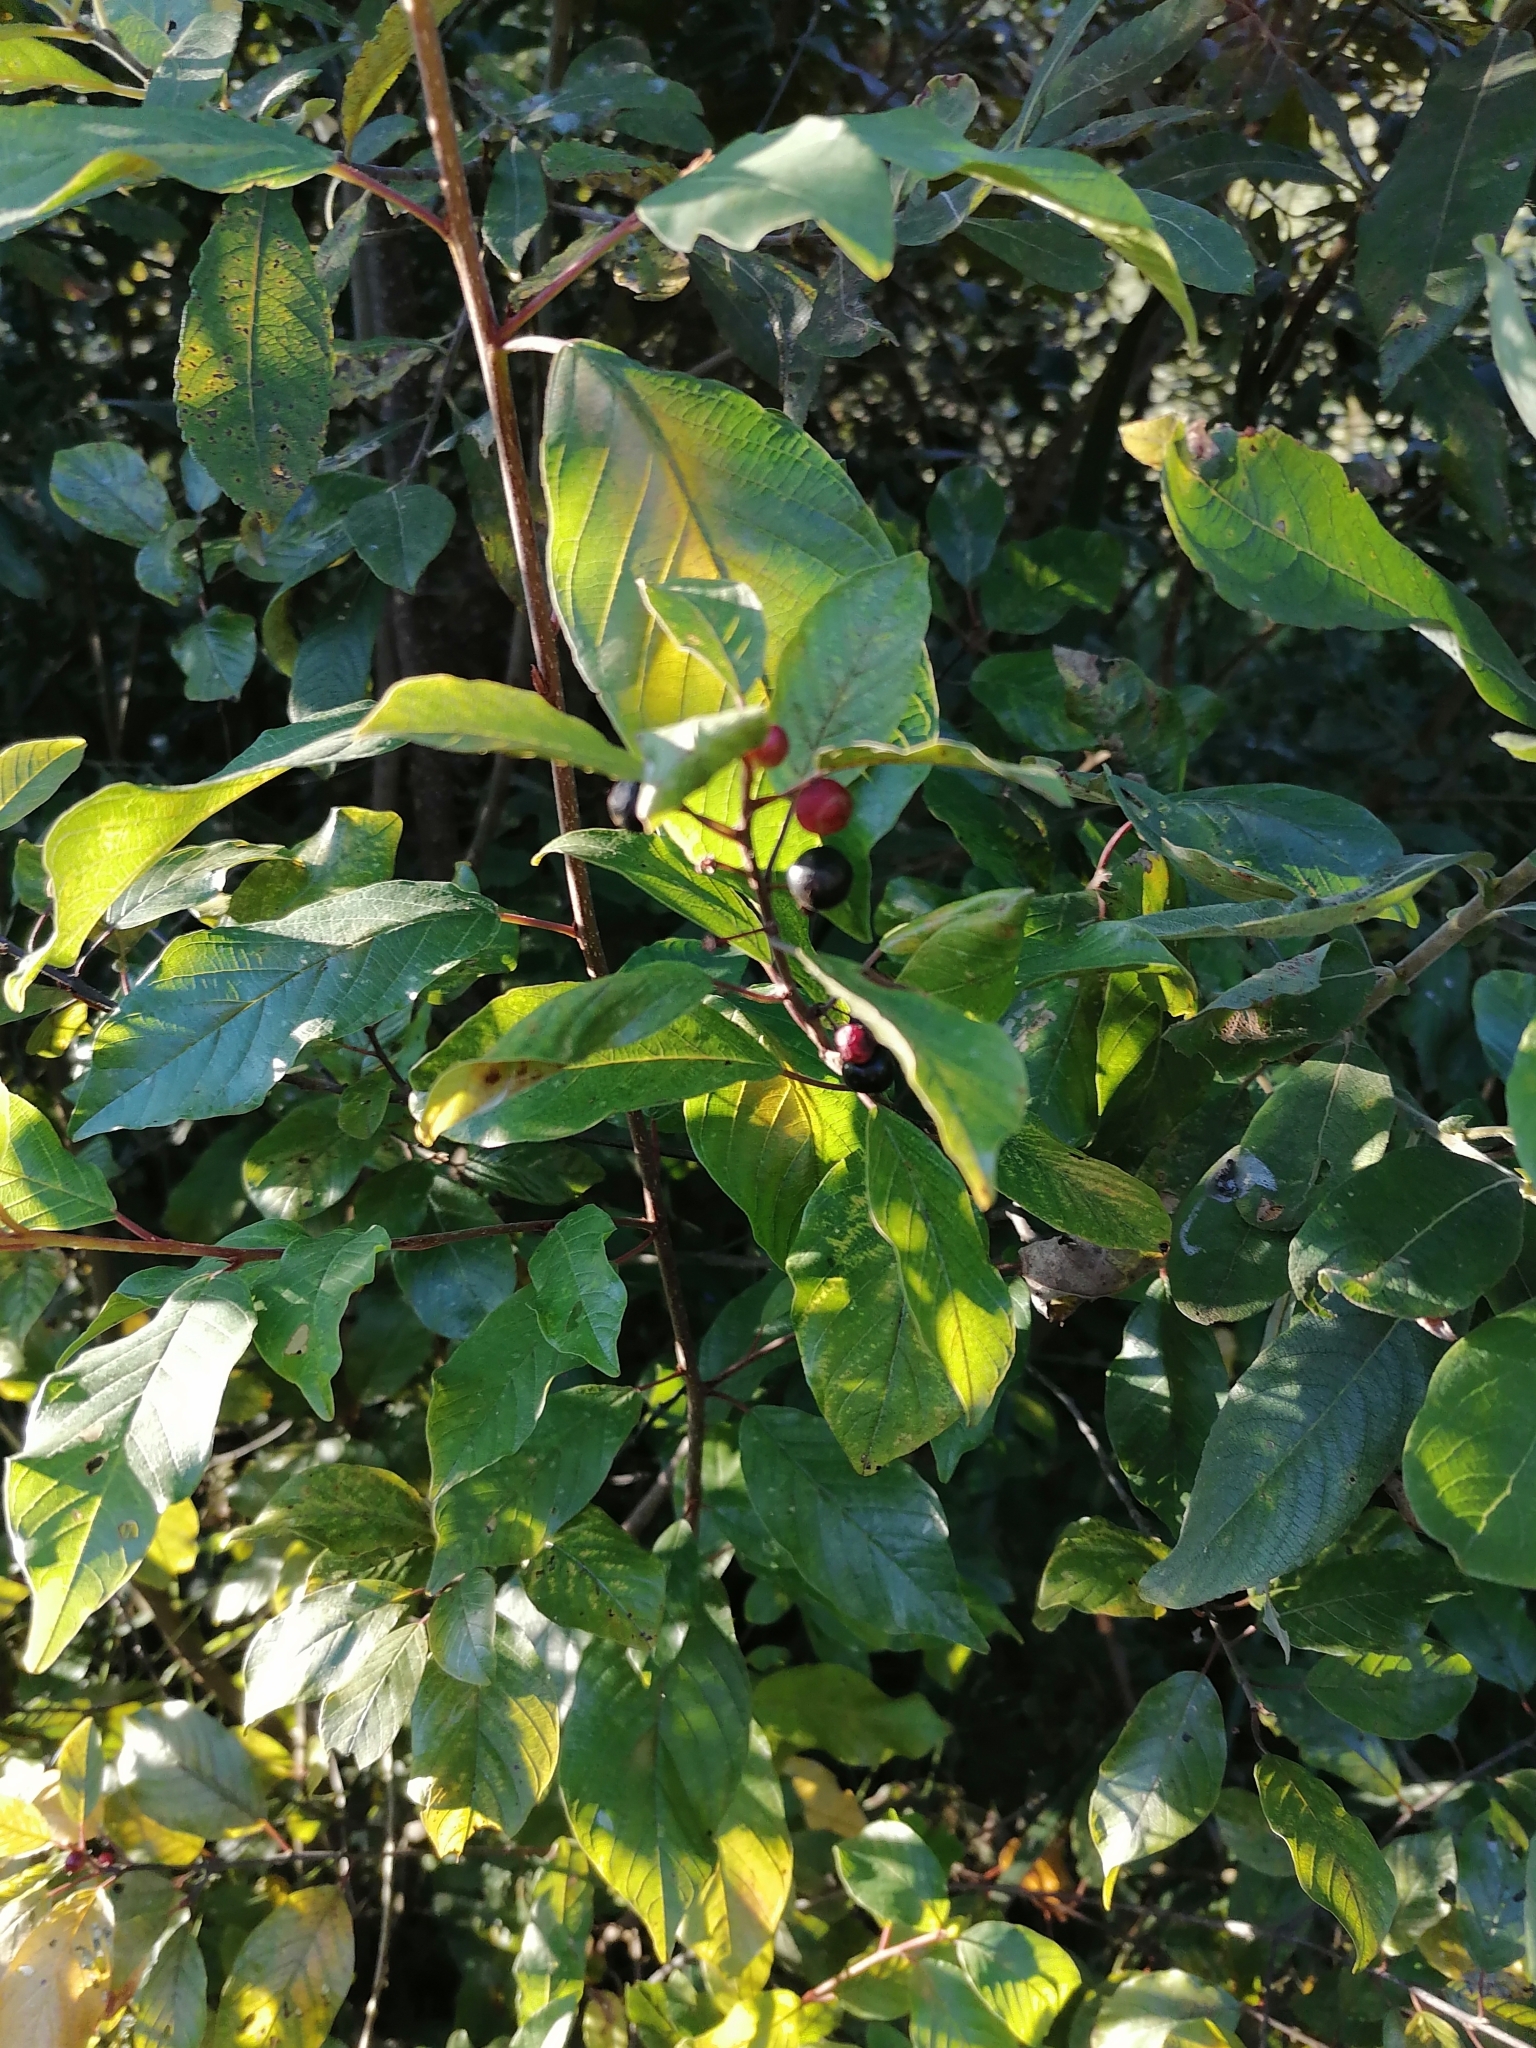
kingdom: Plantae
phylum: Tracheophyta
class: Magnoliopsida
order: Rosales
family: Rhamnaceae
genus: Frangula
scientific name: Frangula alnus
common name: Alder buckthorn
